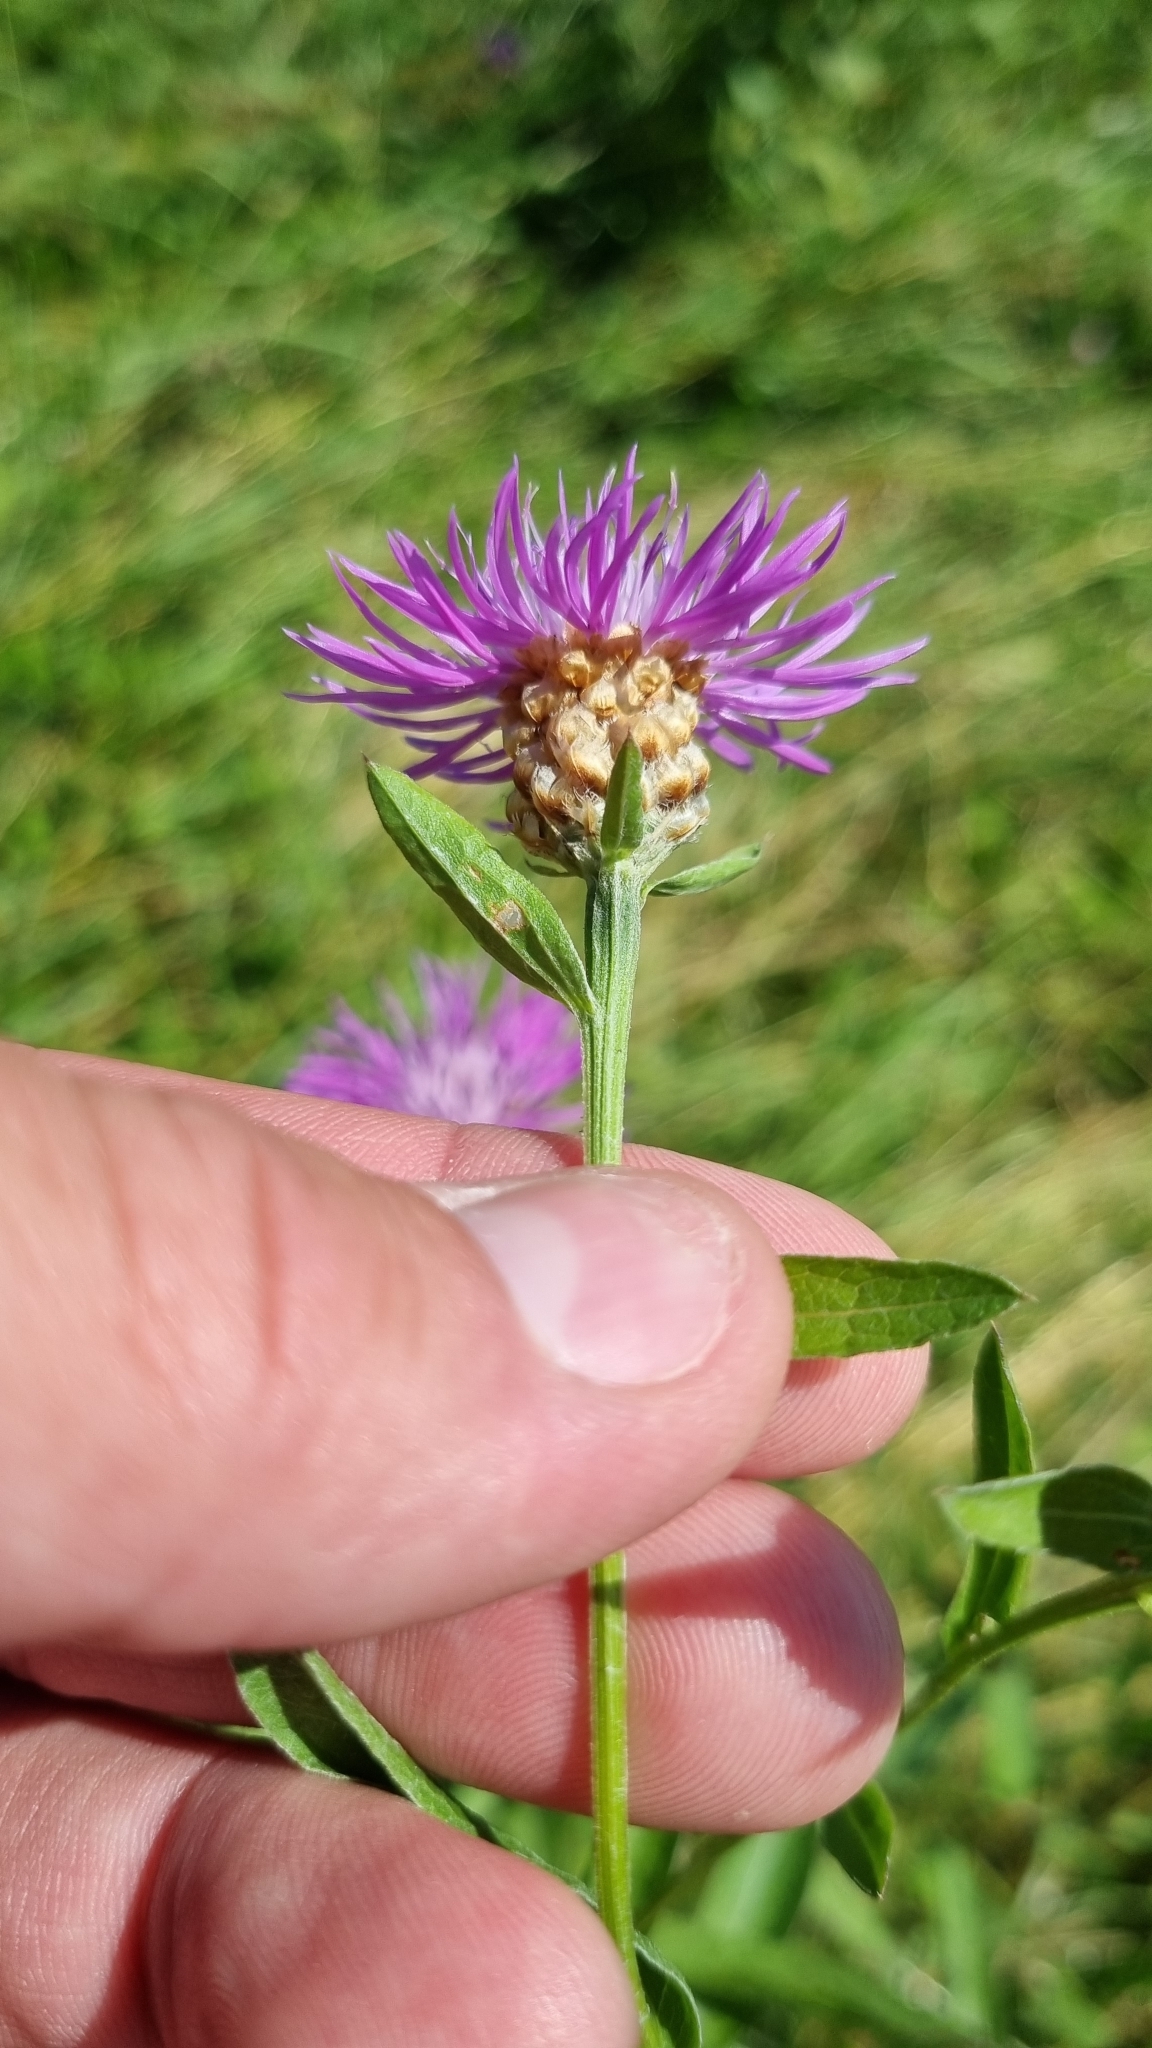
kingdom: Plantae
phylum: Tracheophyta
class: Magnoliopsida
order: Asterales
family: Asteraceae
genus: Centaurea
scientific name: Centaurea jacea
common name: Brown knapweed
